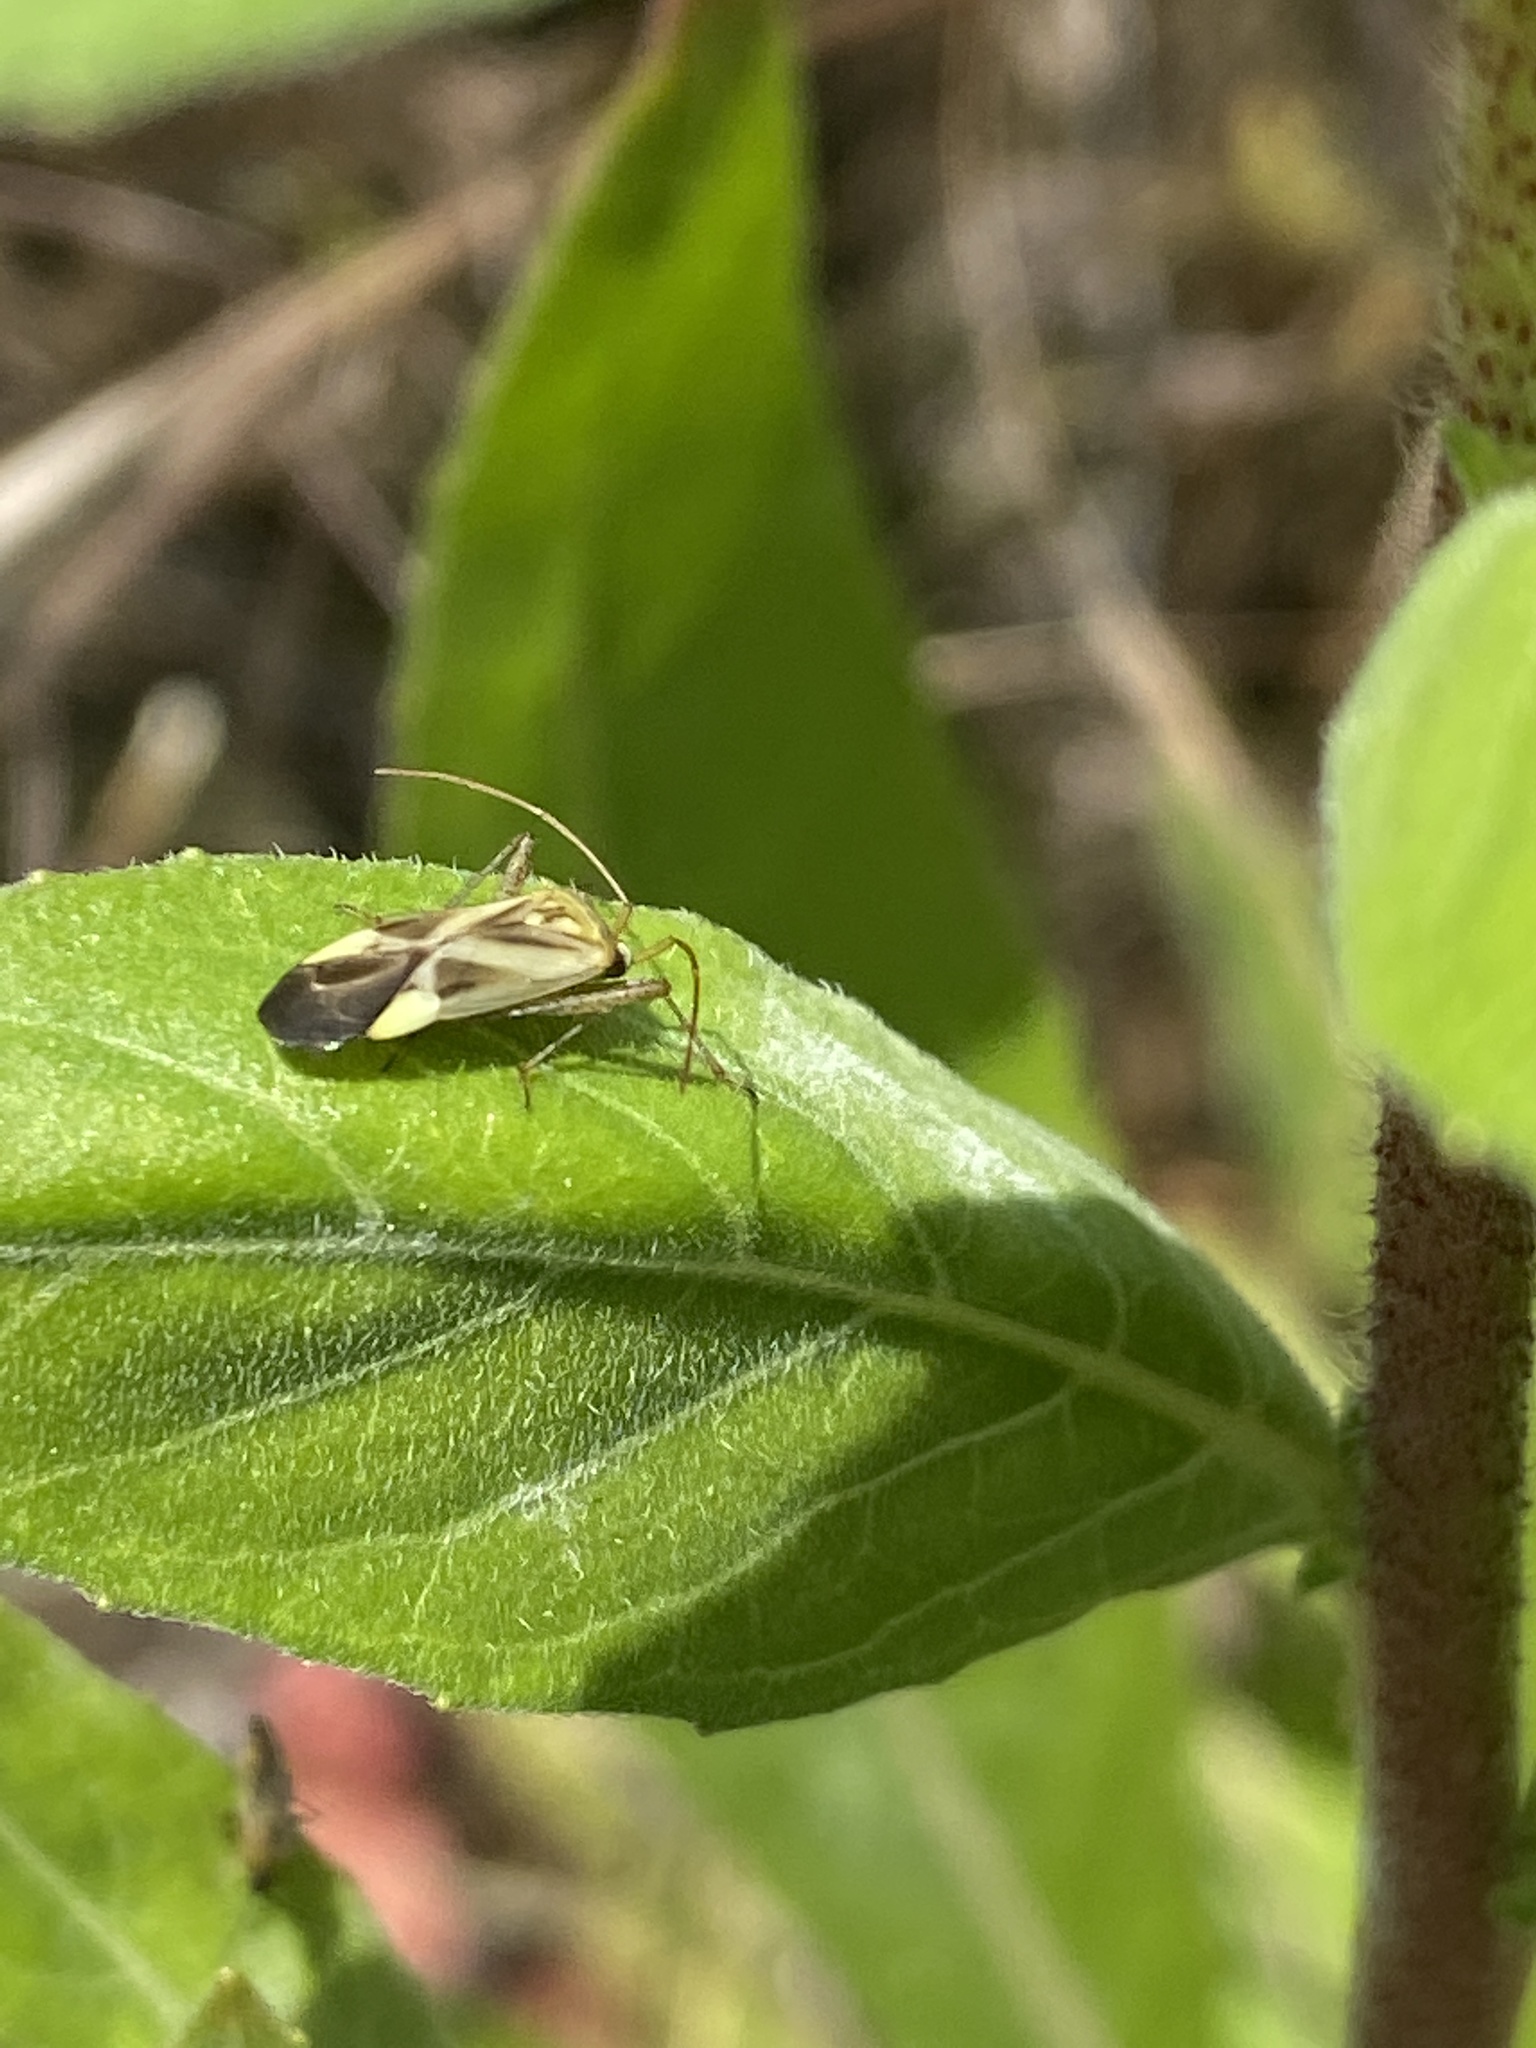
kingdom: Animalia
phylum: Arthropoda
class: Insecta
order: Hemiptera
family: Miridae
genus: Adelphocoris
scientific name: Adelphocoris lineolatus
